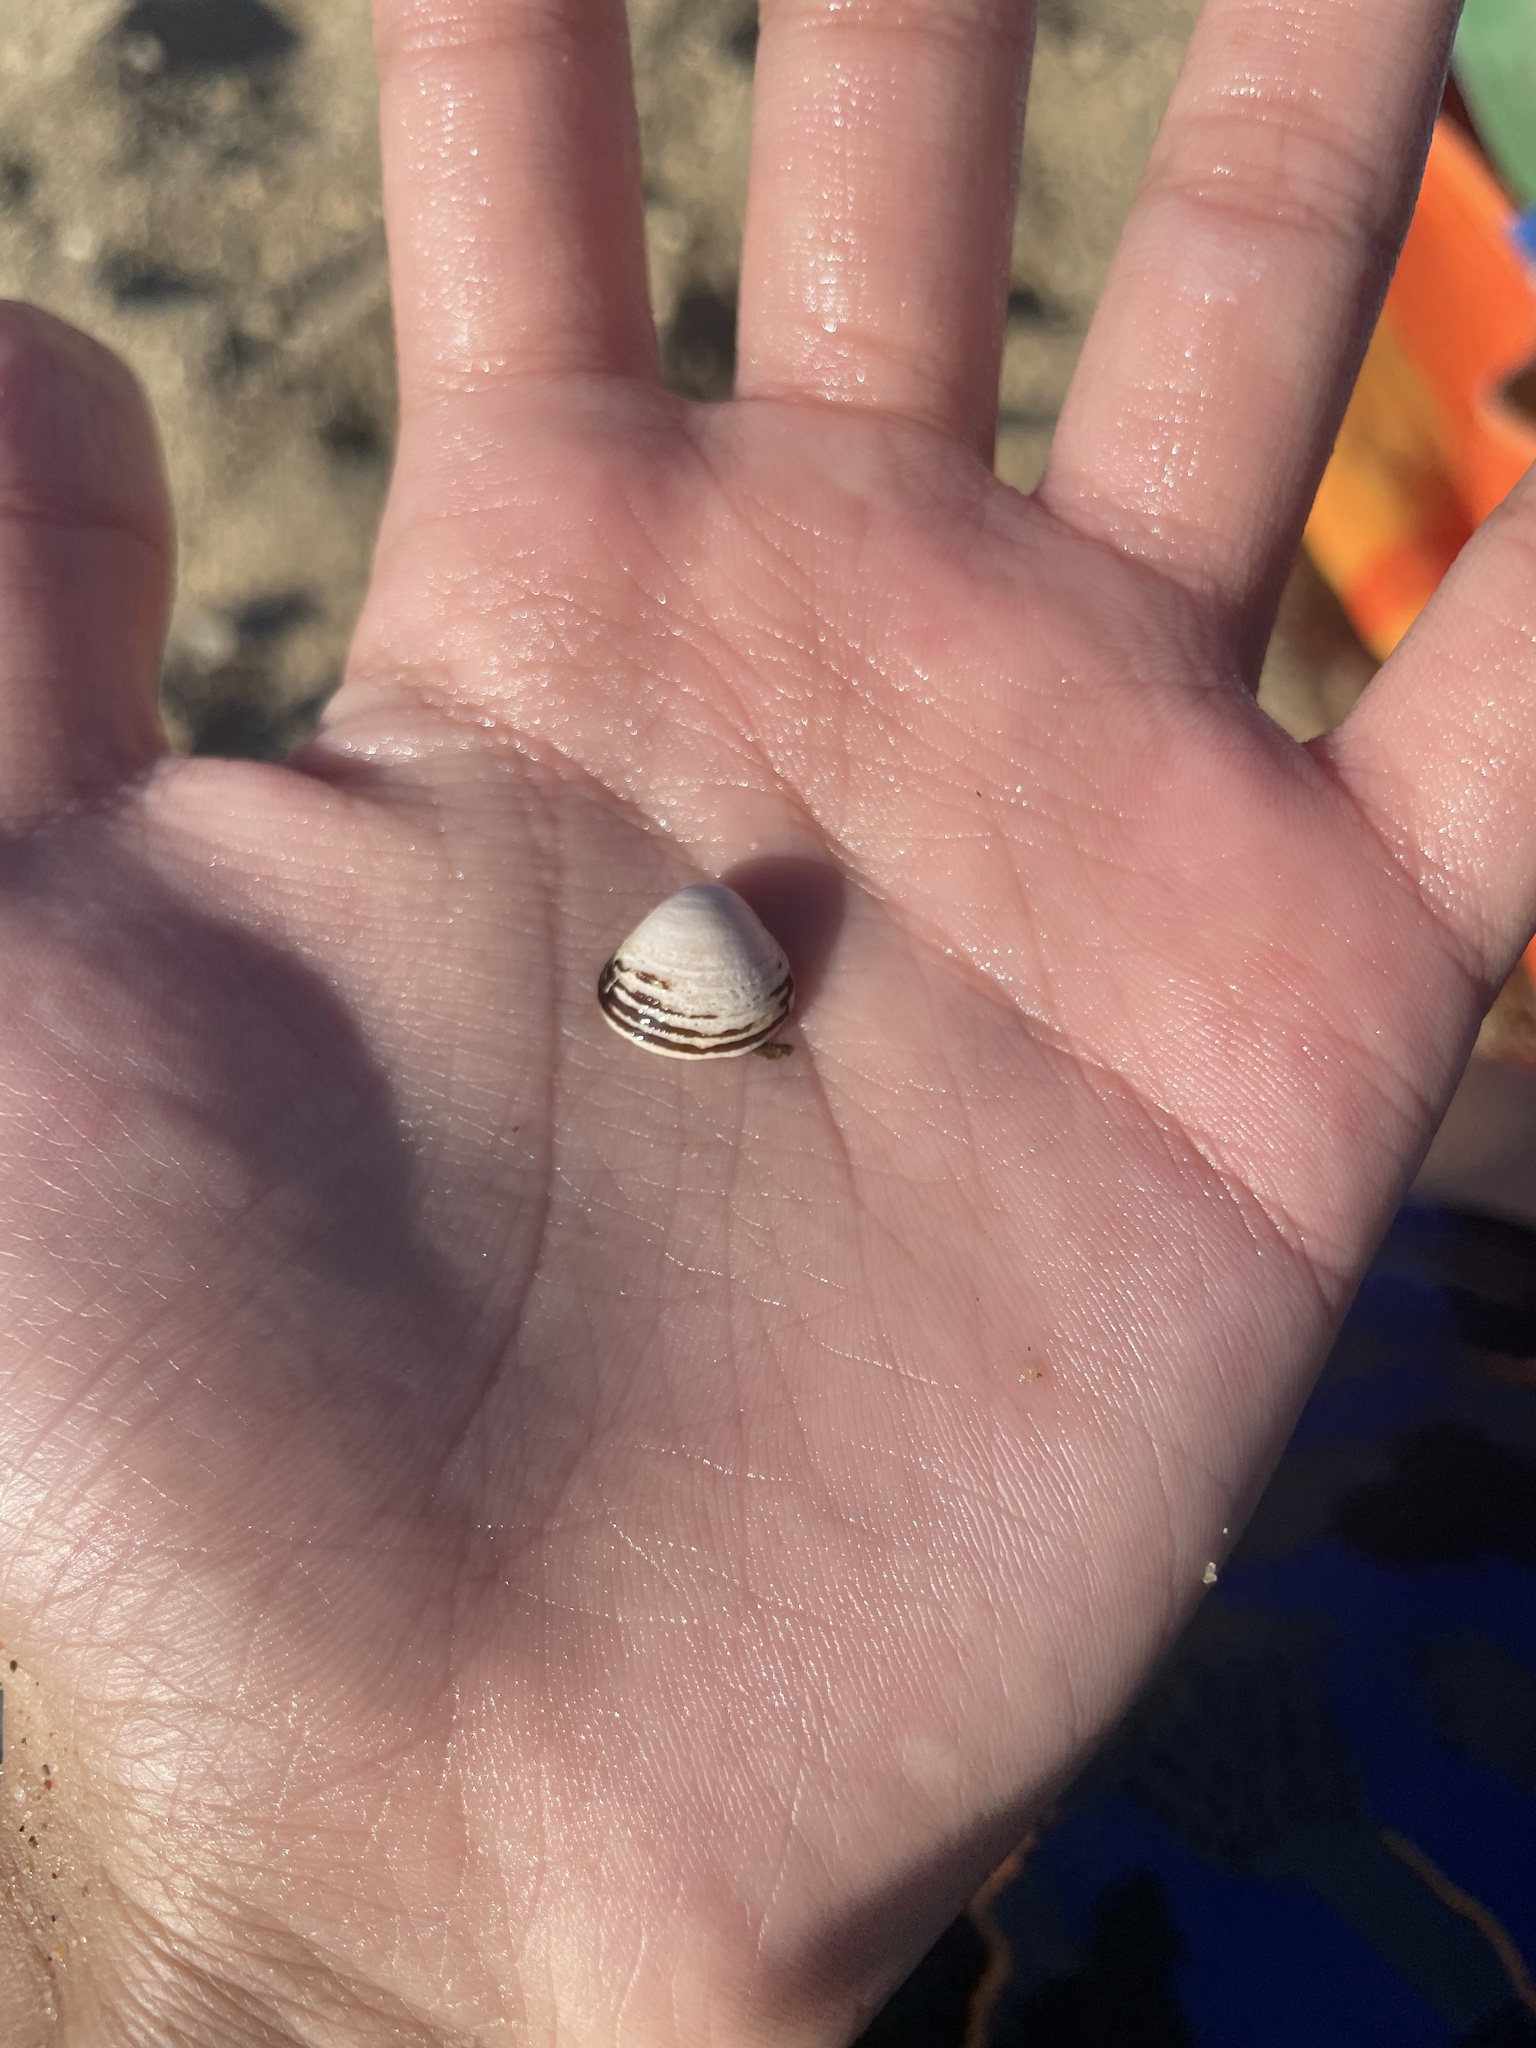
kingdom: Animalia
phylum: Mollusca
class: Bivalvia
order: Venerida
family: Cyrenidae
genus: Corbicula
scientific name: Corbicula fluminea
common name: Asian clam
